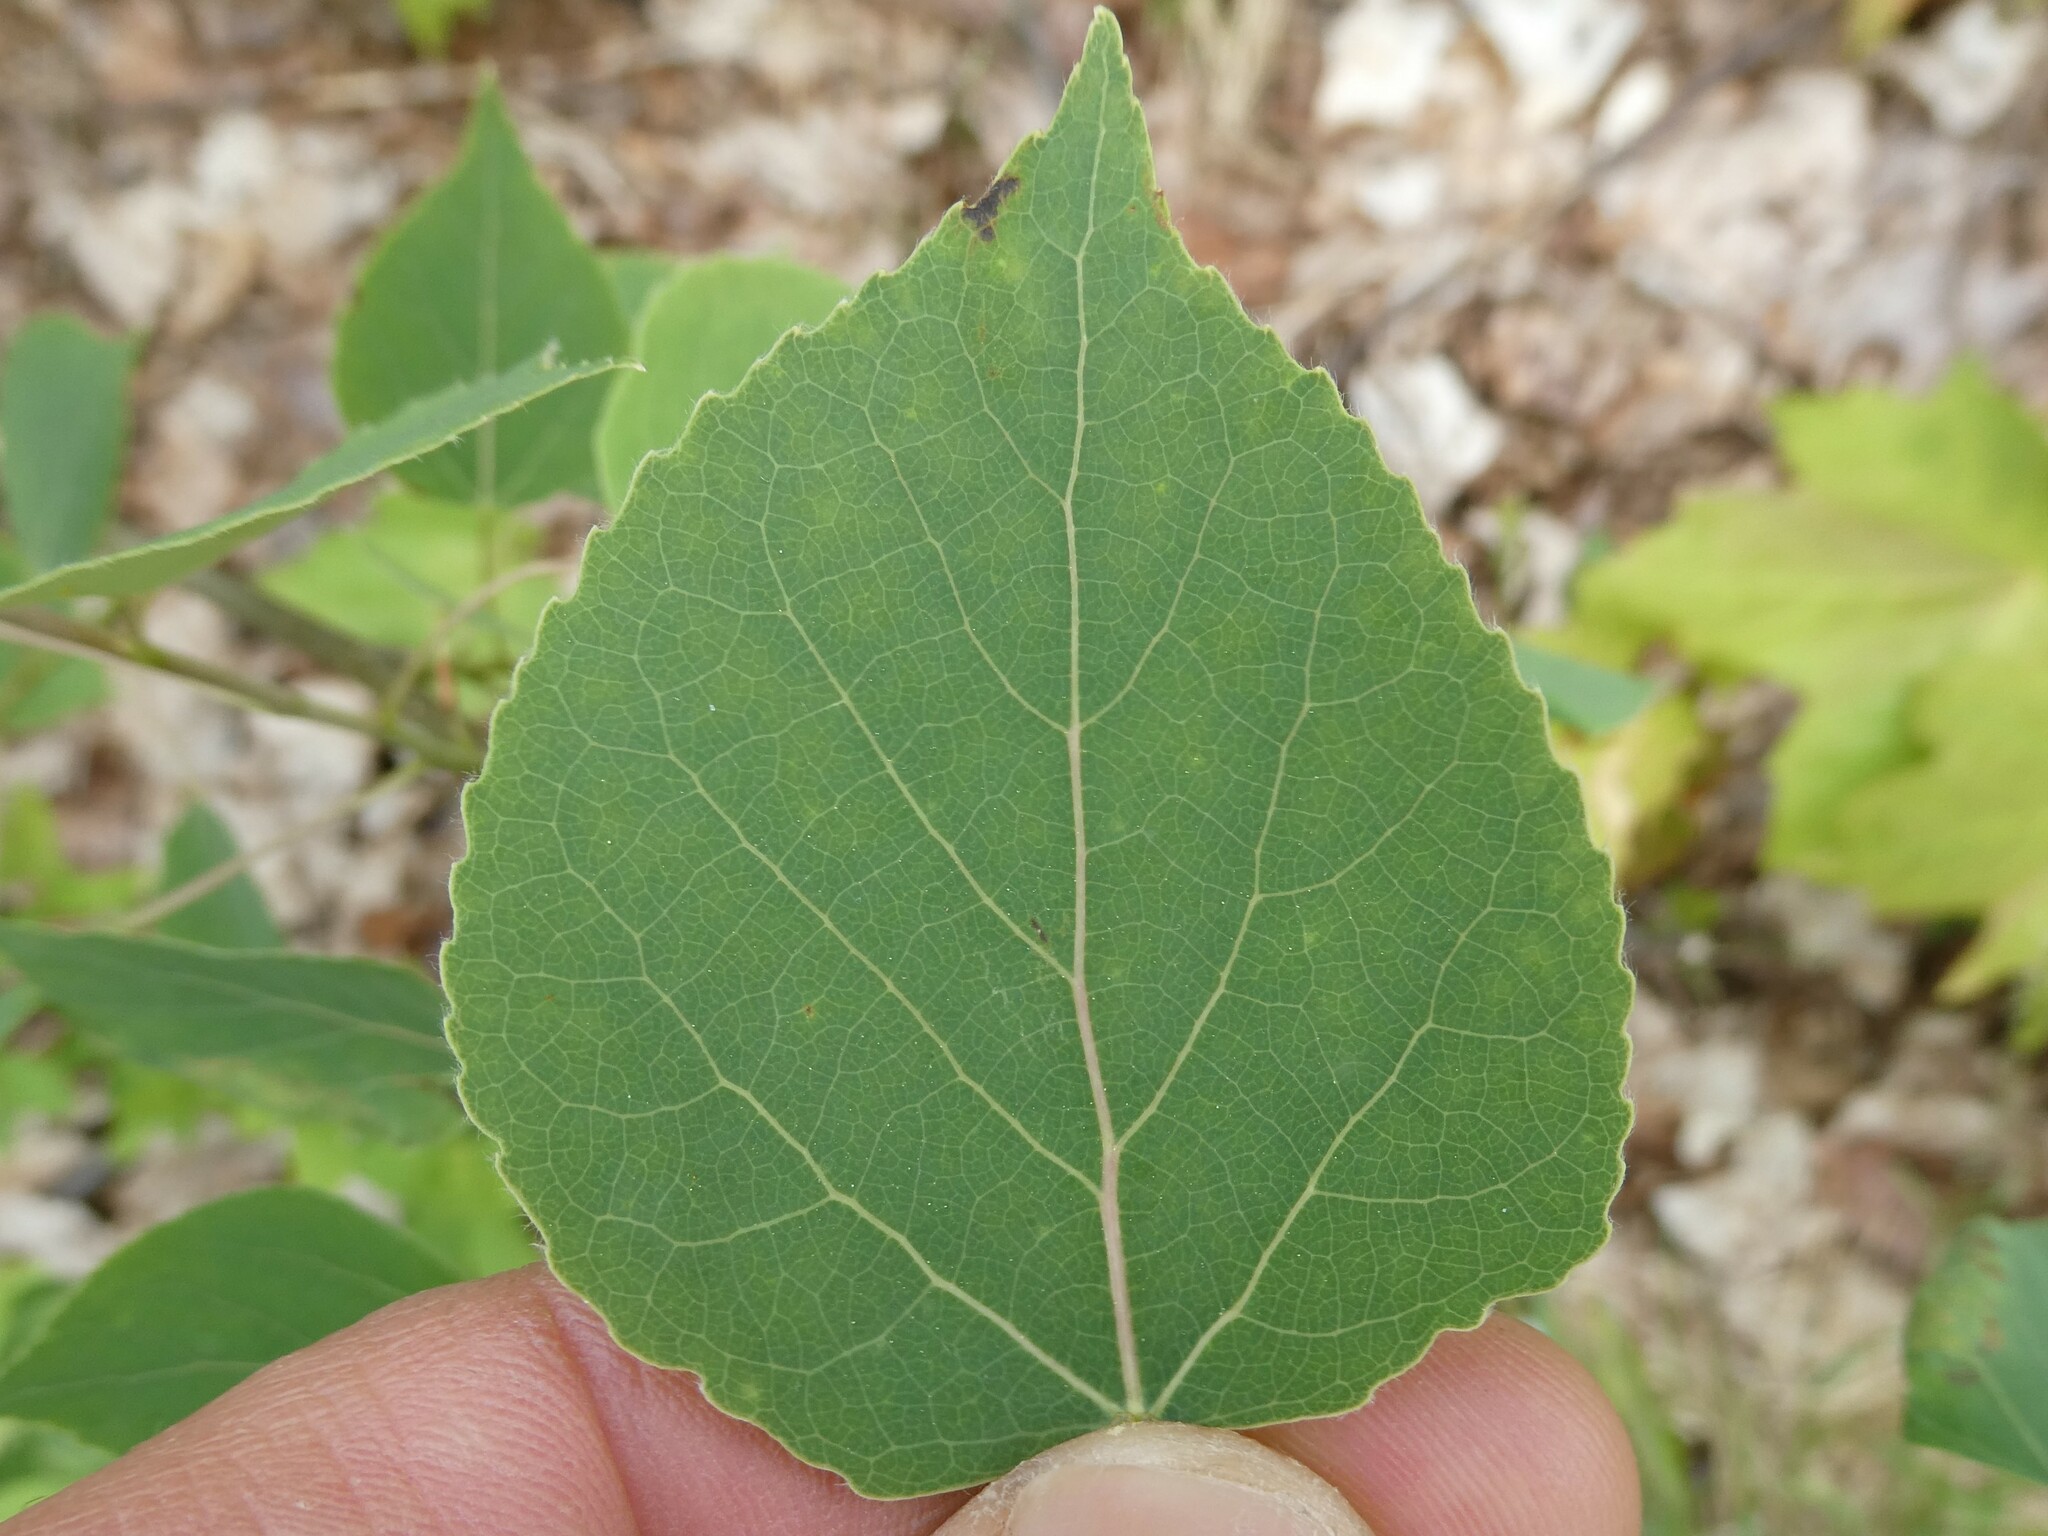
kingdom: Plantae
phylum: Tracheophyta
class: Magnoliopsida
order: Malpighiales
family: Salicaceae
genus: Populus
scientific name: Populus tremuloides
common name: Quaking aspen
